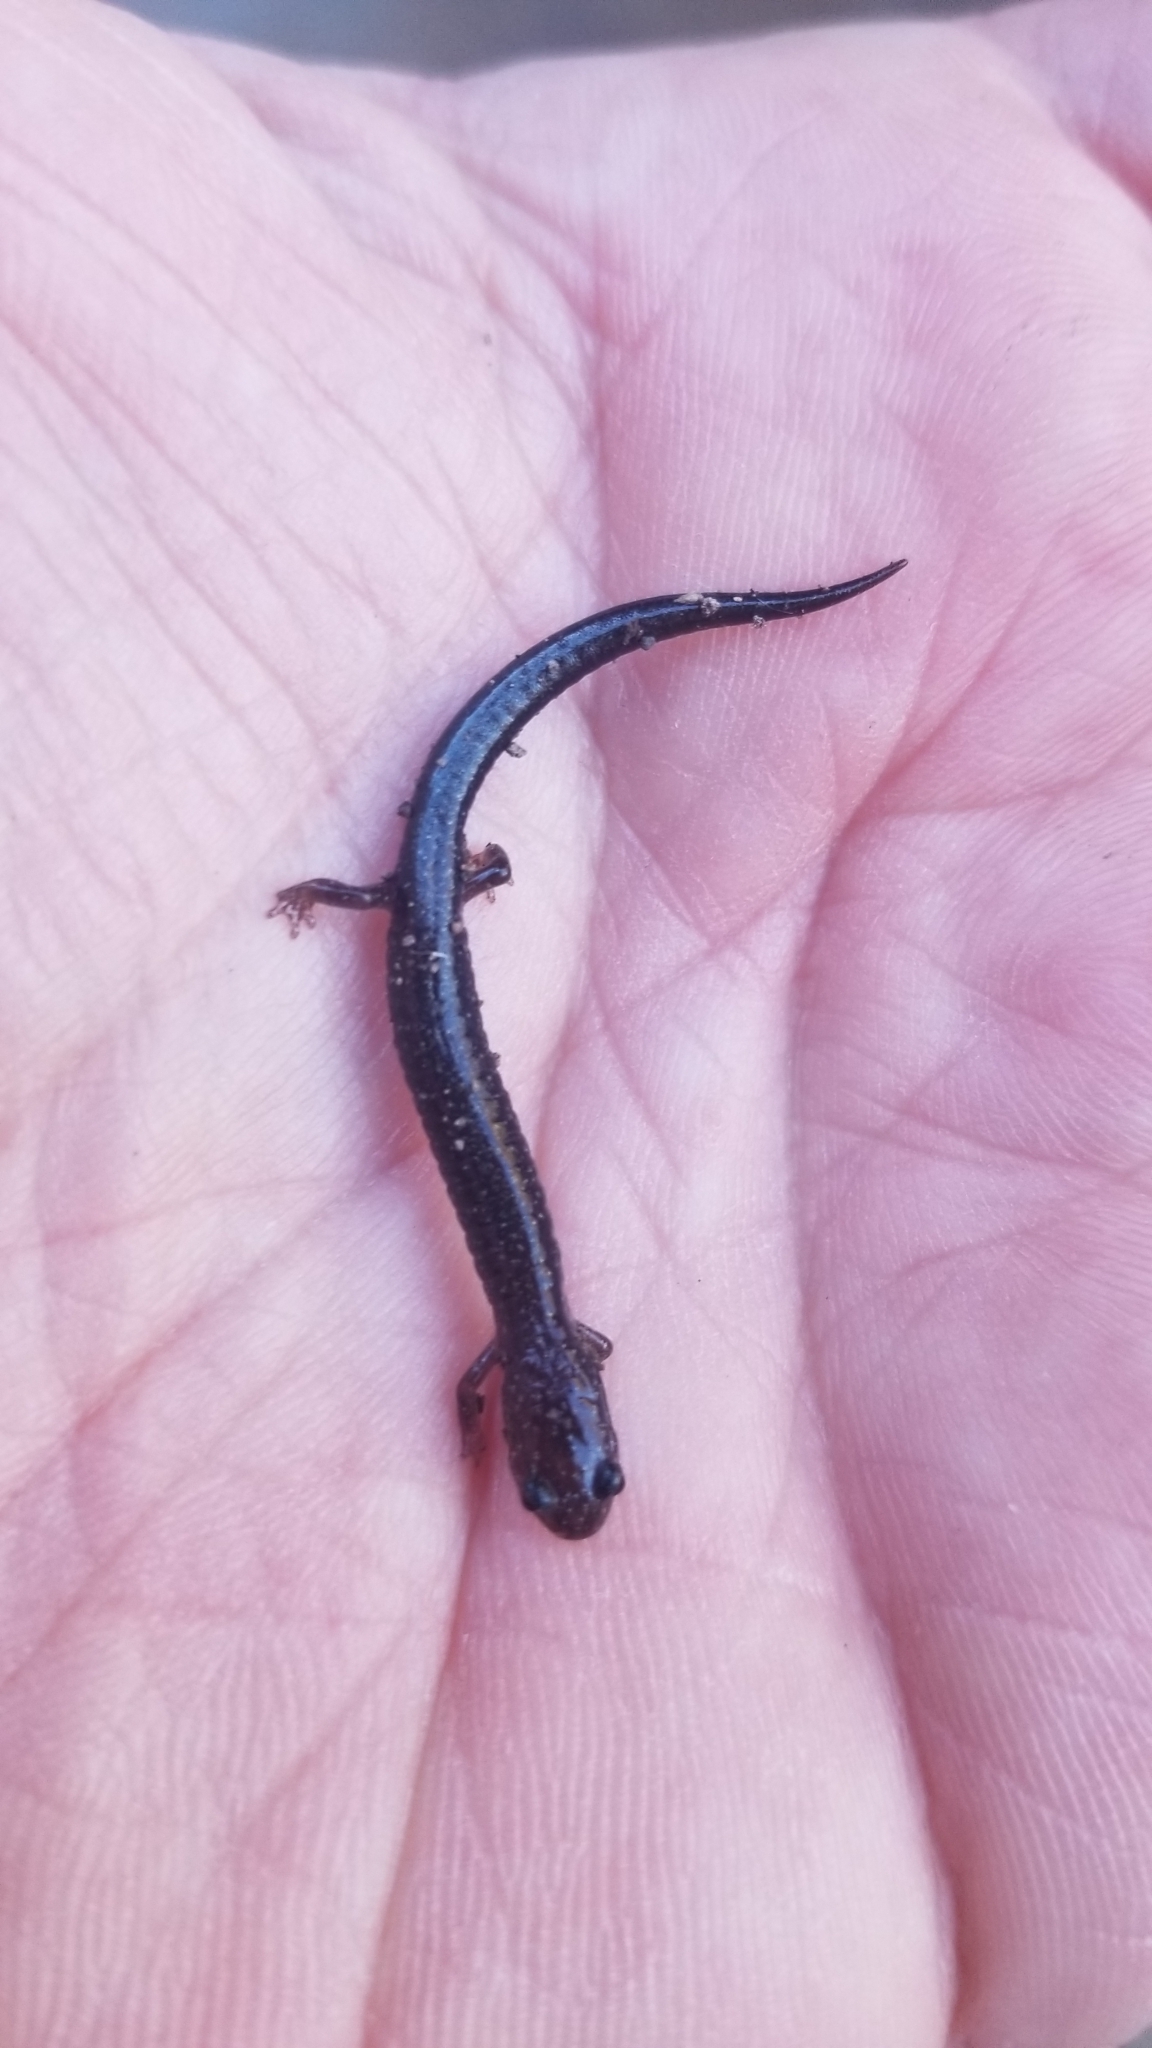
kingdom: Animalia
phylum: Chordata
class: Amphibia
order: Caudata
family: Plethodontidae
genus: Plethodon
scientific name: Plethodon cinereus
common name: Redback salamander
